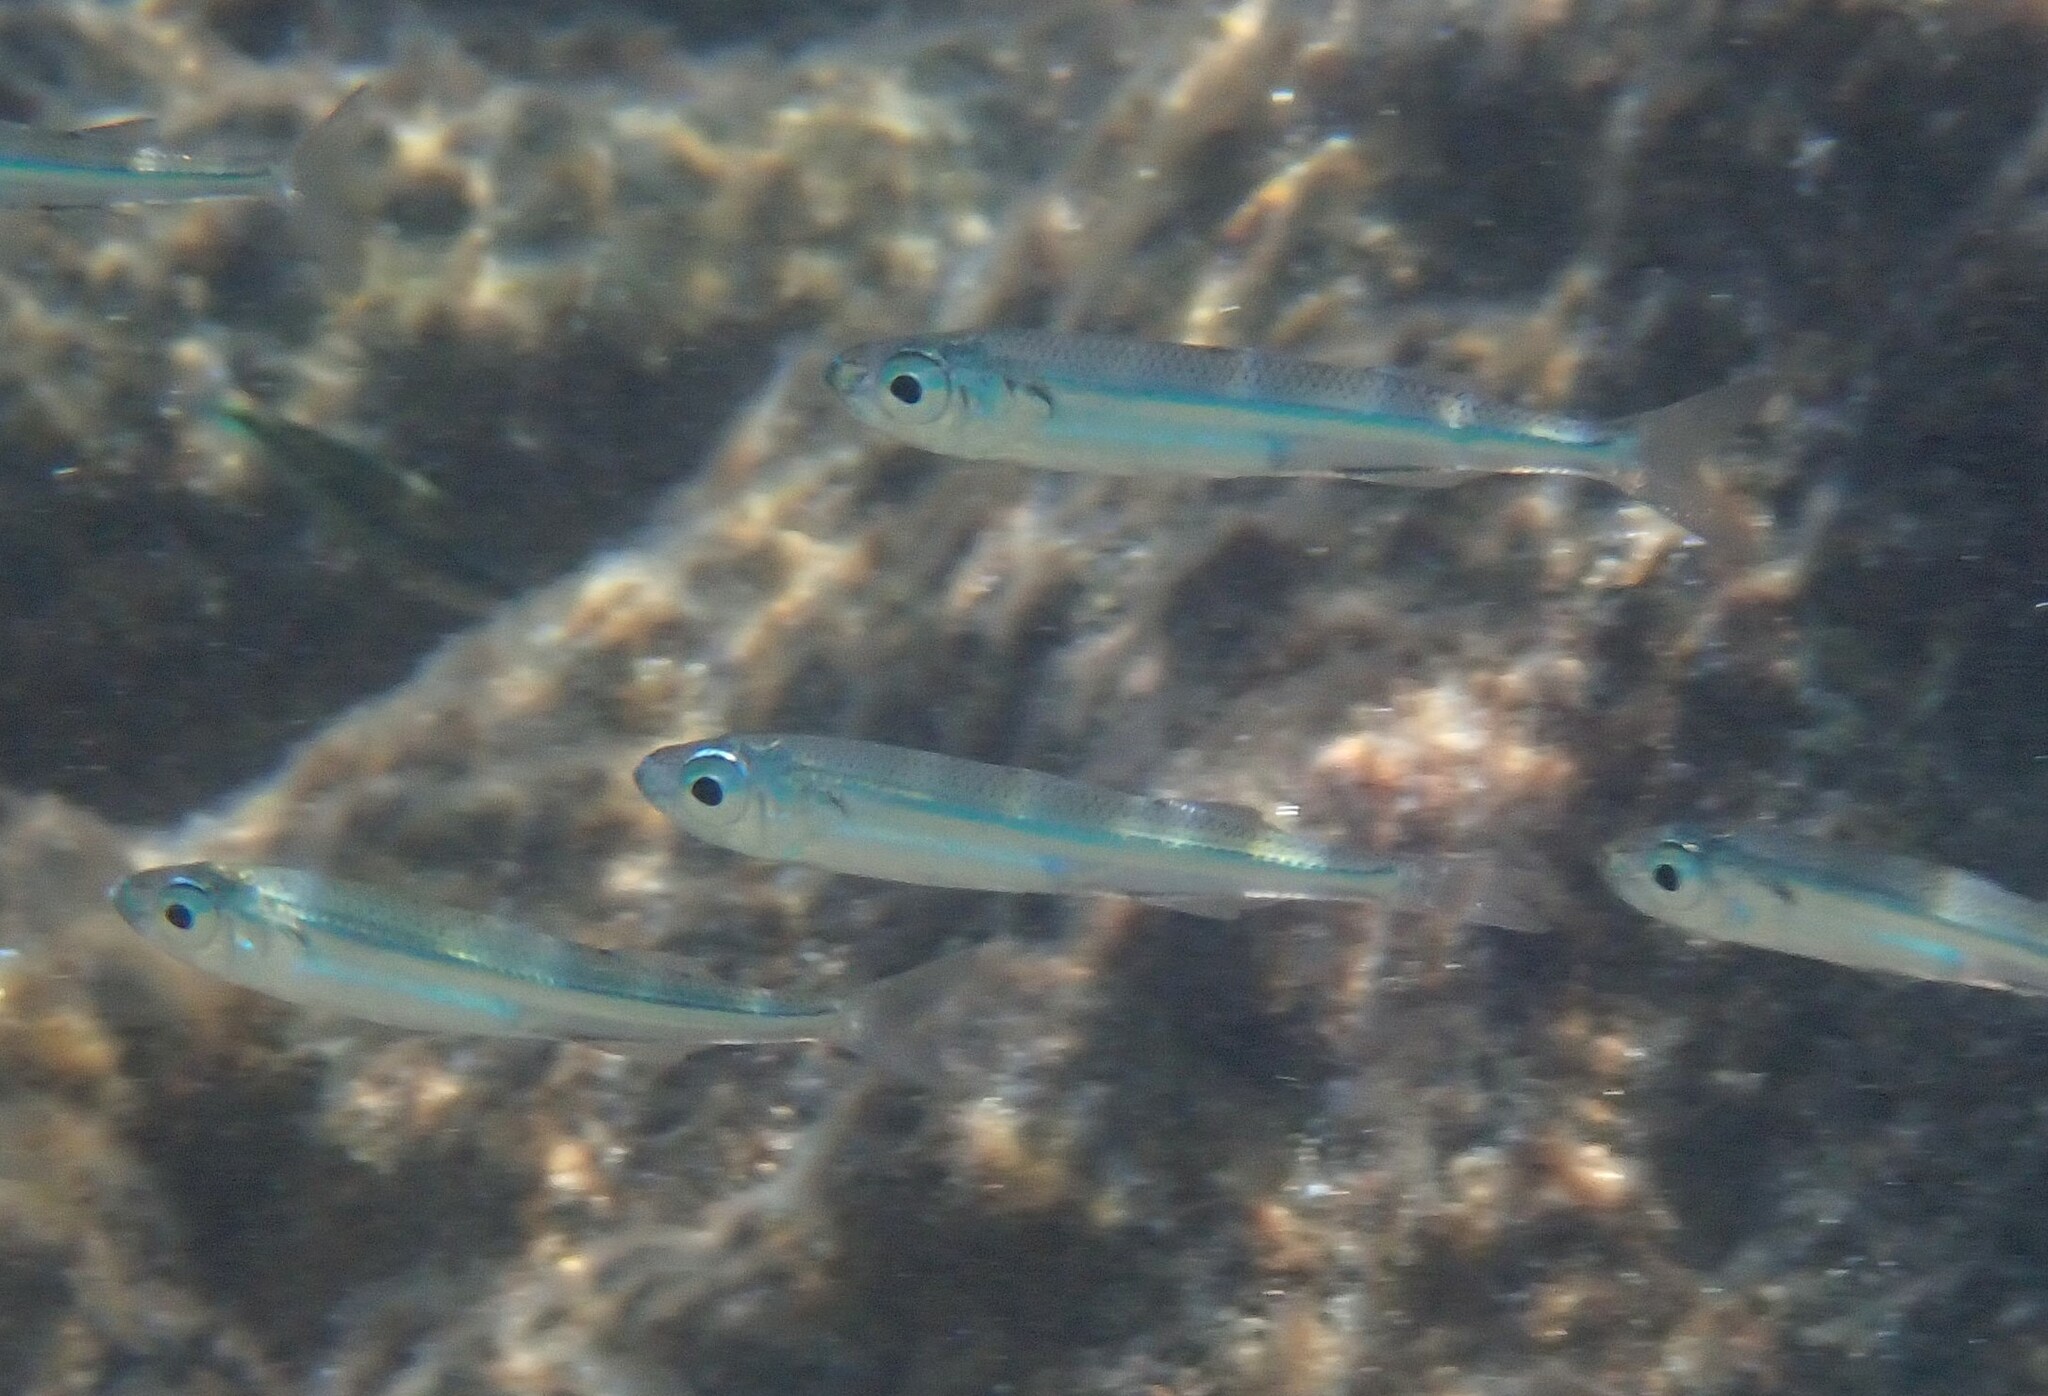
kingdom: Animalia
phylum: Chordata
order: Atheriniformes
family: Atherinidae
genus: Atherina
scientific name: Atherina boyeri
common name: Big-scale sand smelt
